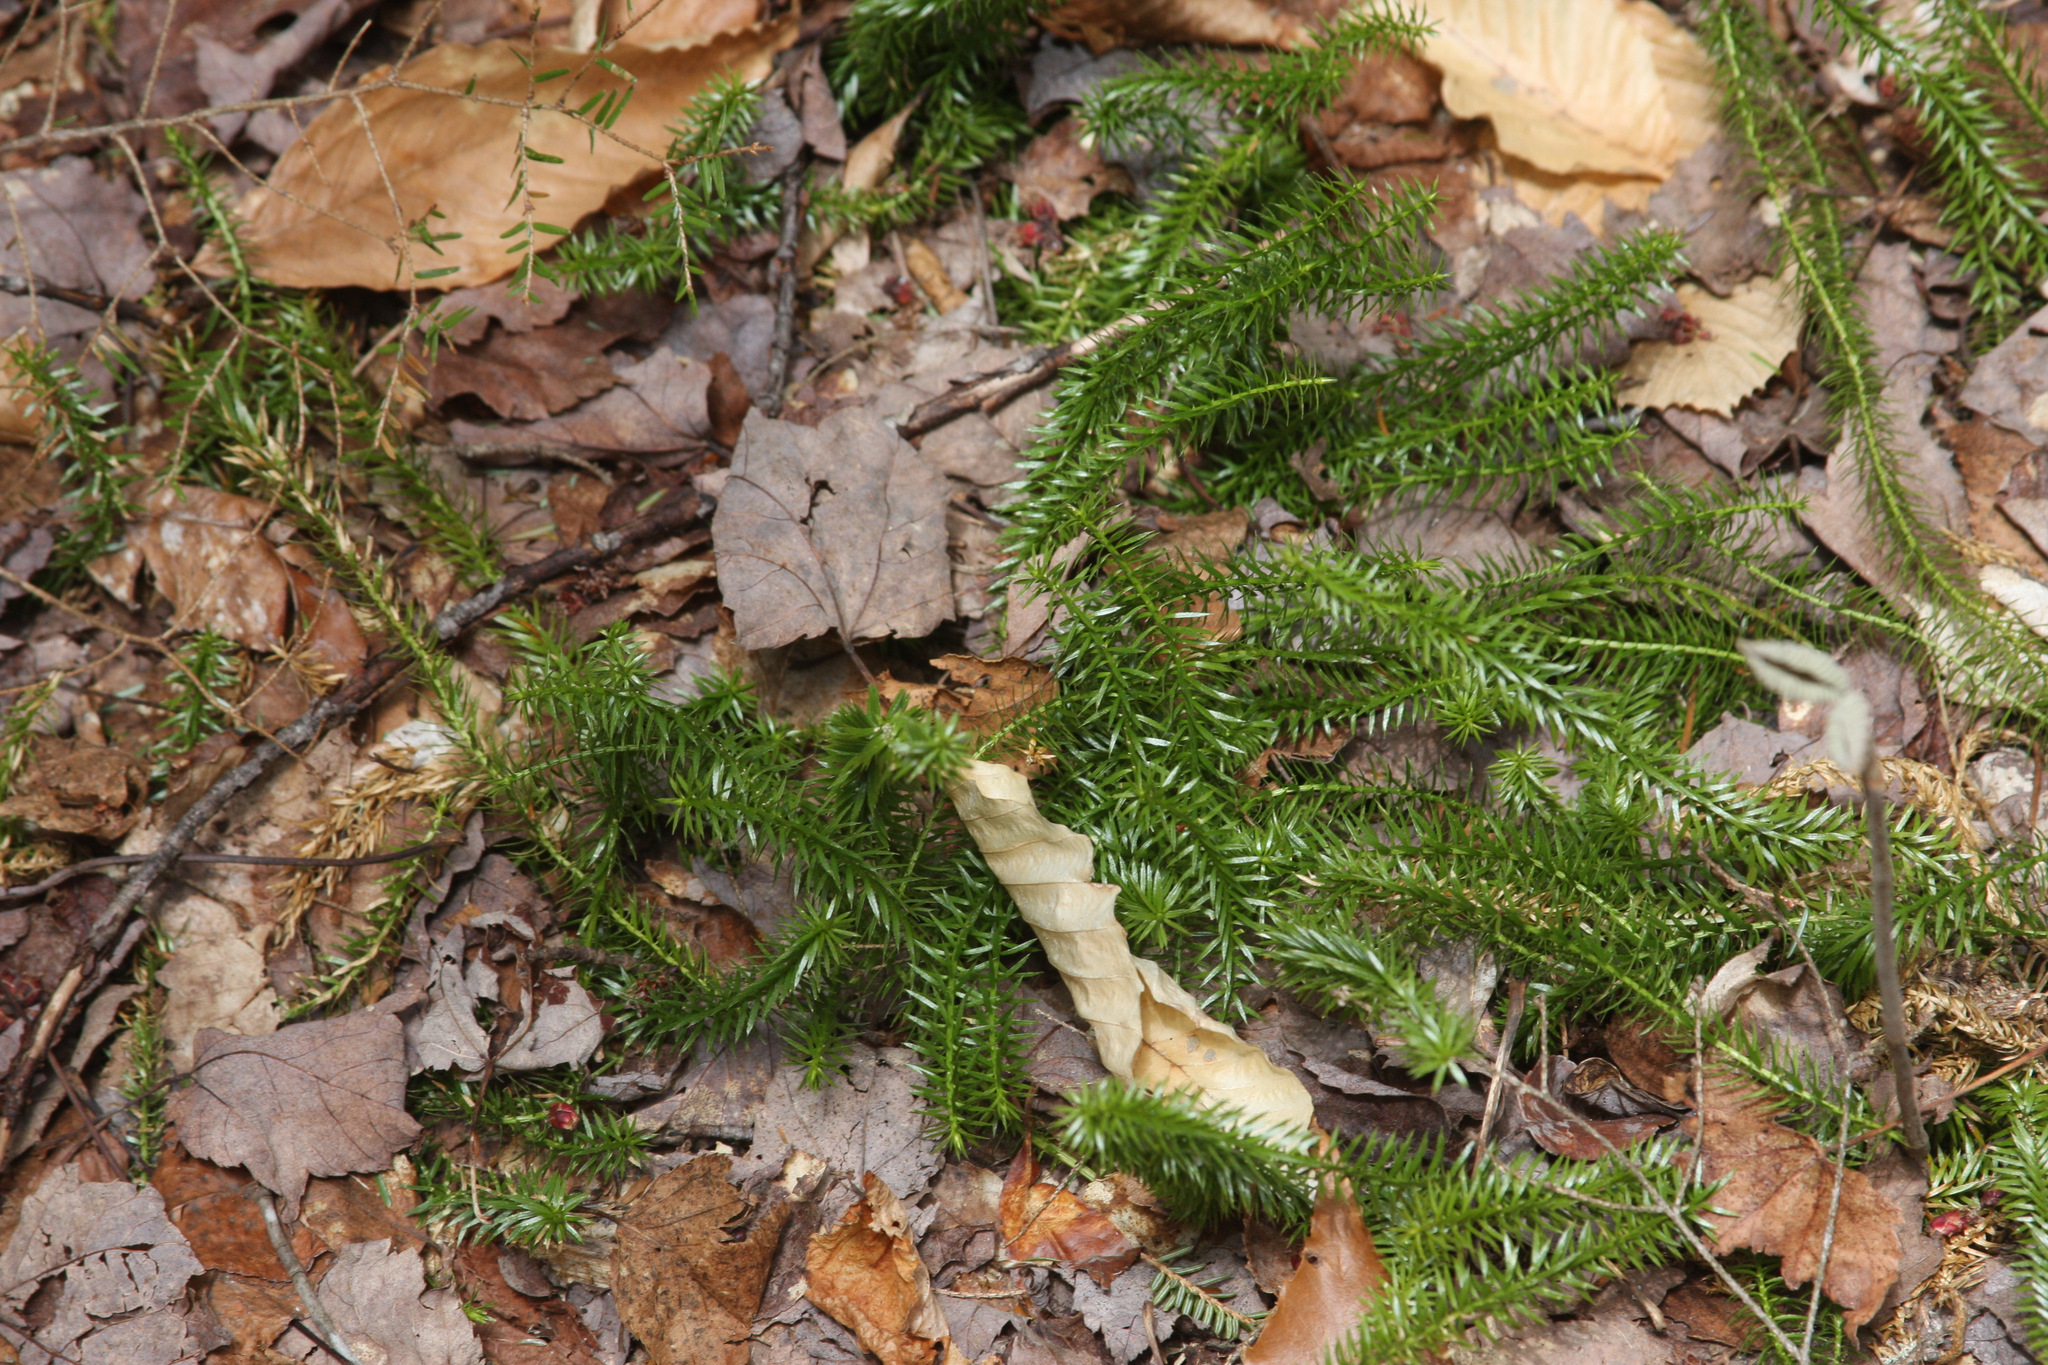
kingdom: Plantae
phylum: Tracheophyta
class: Lycopodiopsida
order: Lycopodiales
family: Lycopodiaceae
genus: Spinulum
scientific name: Spinulum annotinum
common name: Interrupted club-moss
